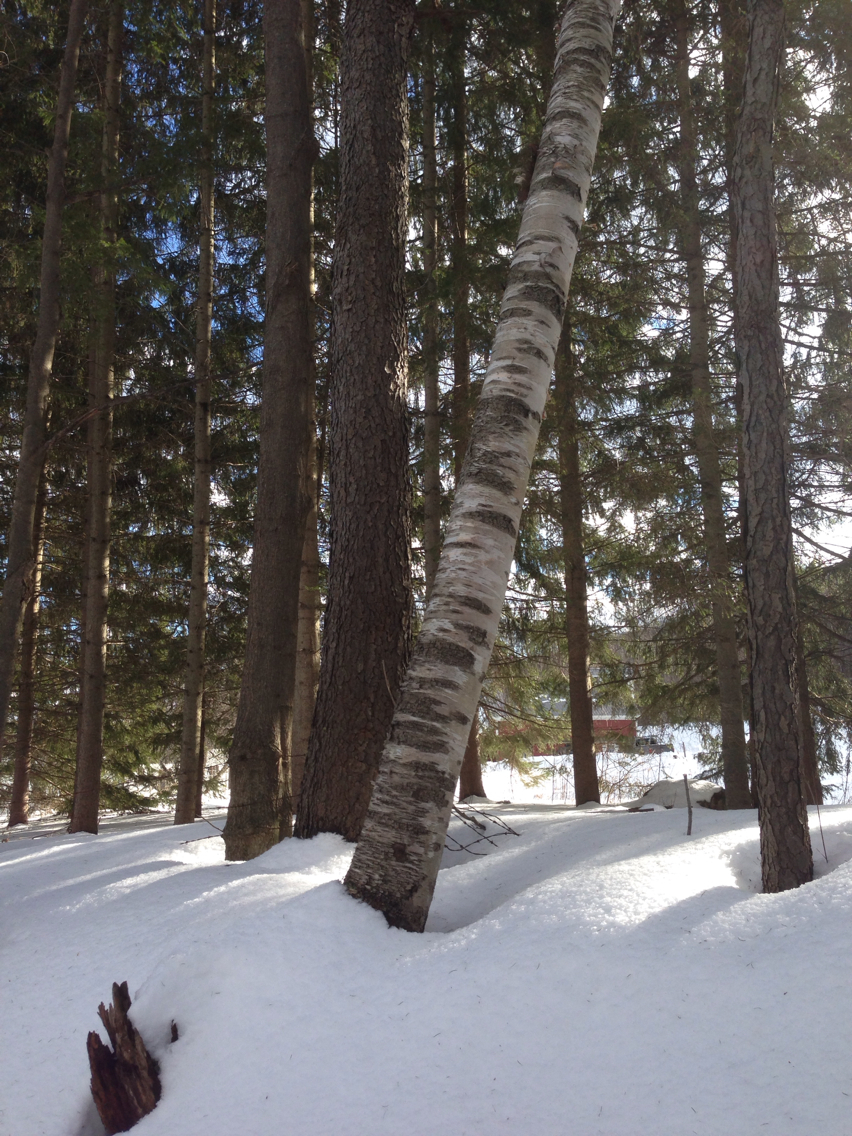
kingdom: Plantae
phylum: Tracheophyta
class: Magnoliopsida
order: Fagales
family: Betulaceae
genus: Betula
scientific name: Betula papyrifera
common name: Paper birch
